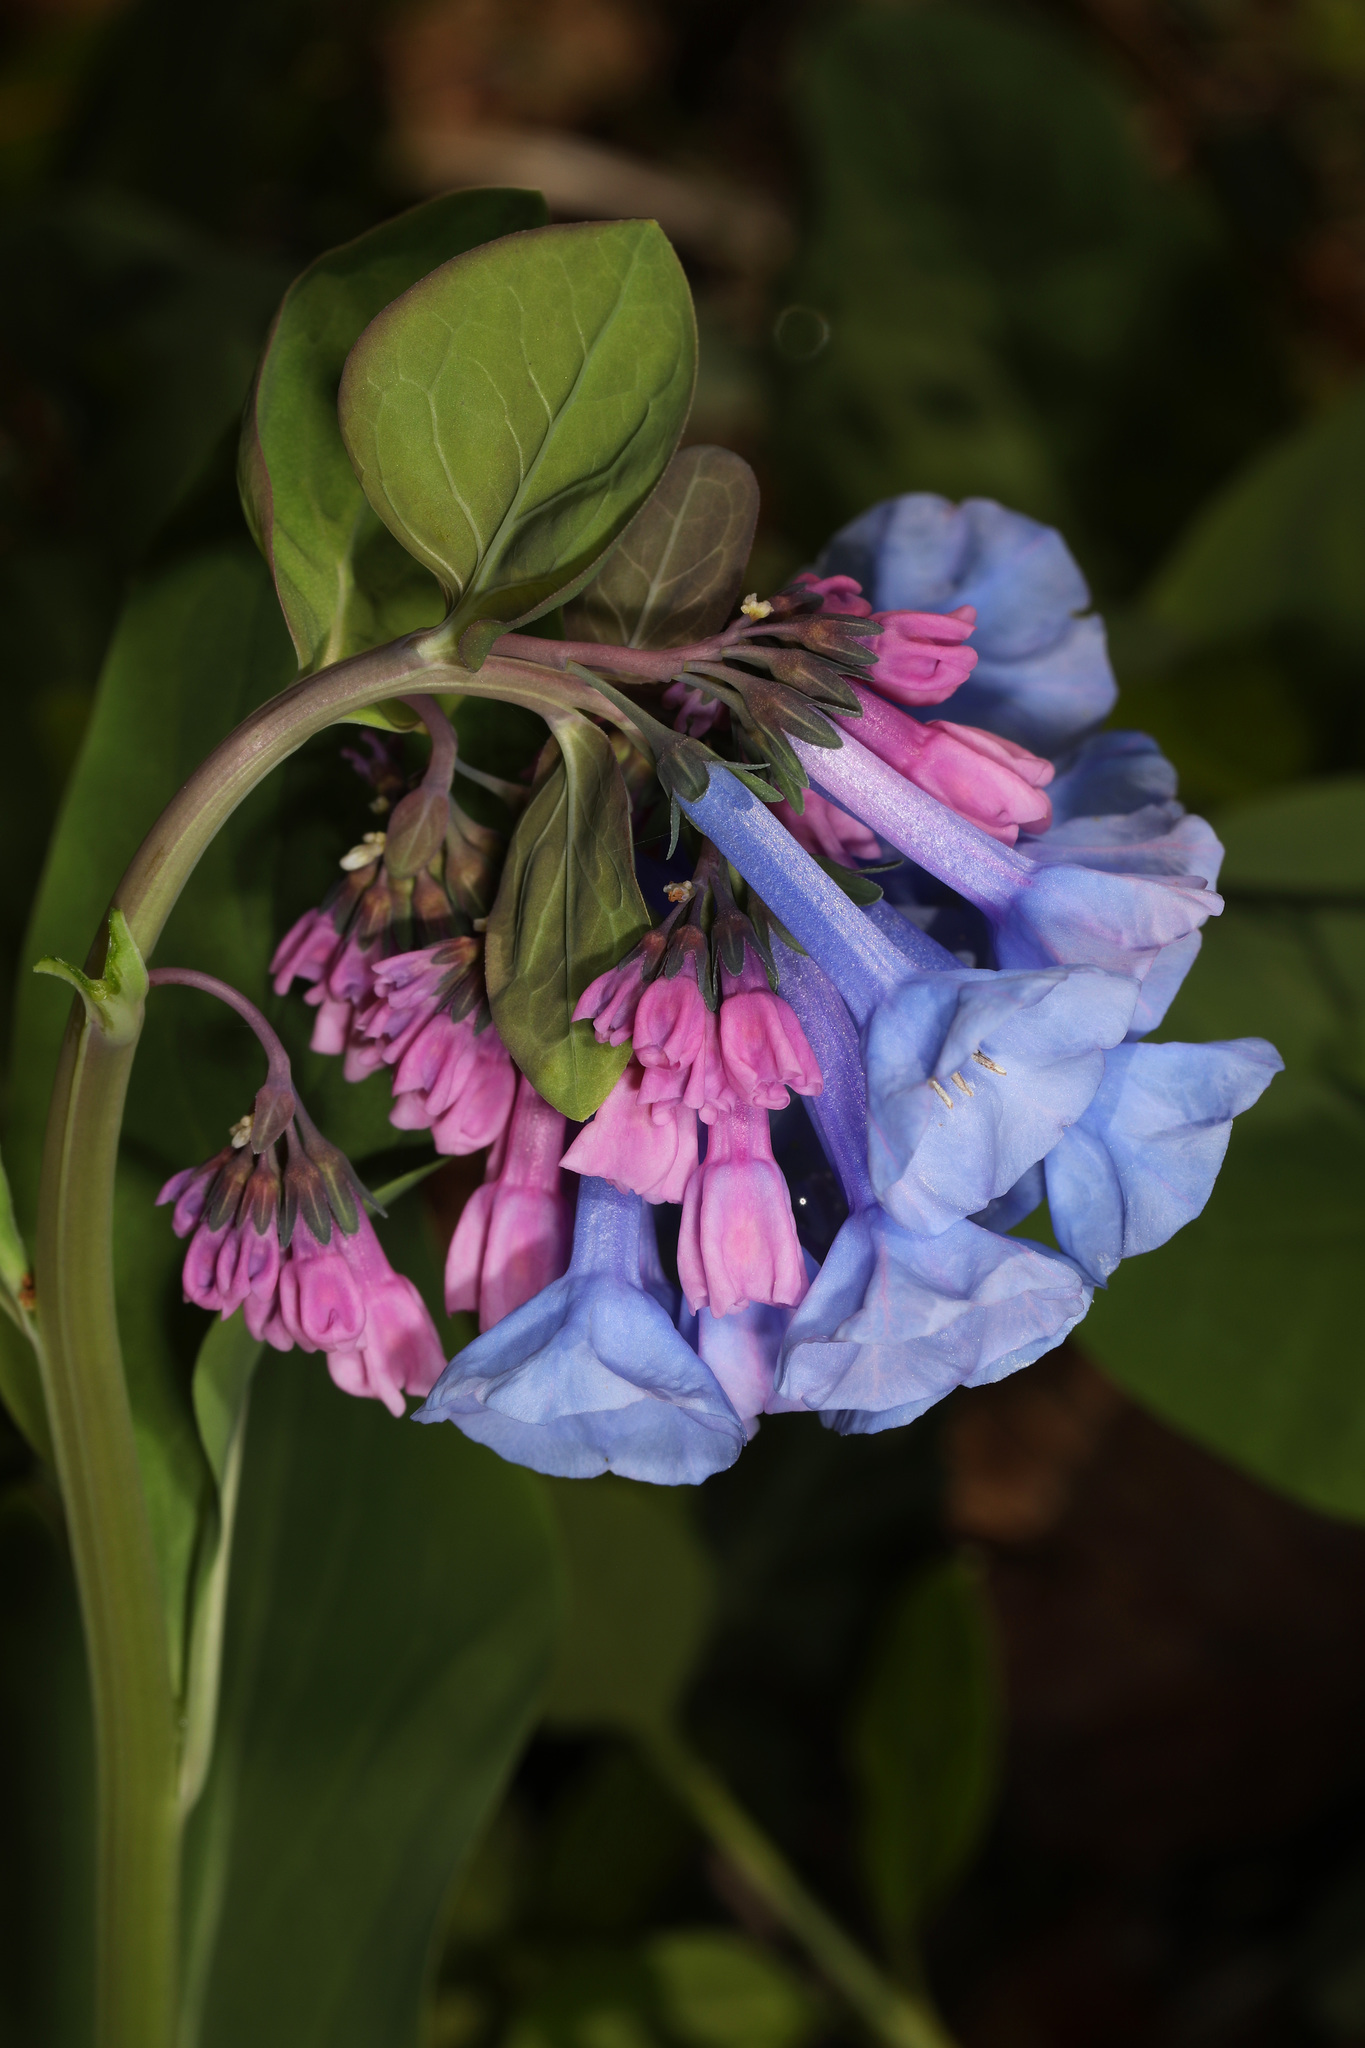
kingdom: Plantae
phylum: Tracheophyta
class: Magnoliopsida
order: Boraginales
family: Boraginaceae
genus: Mertensia
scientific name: Mertensia virginica
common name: Virginia bluebells
